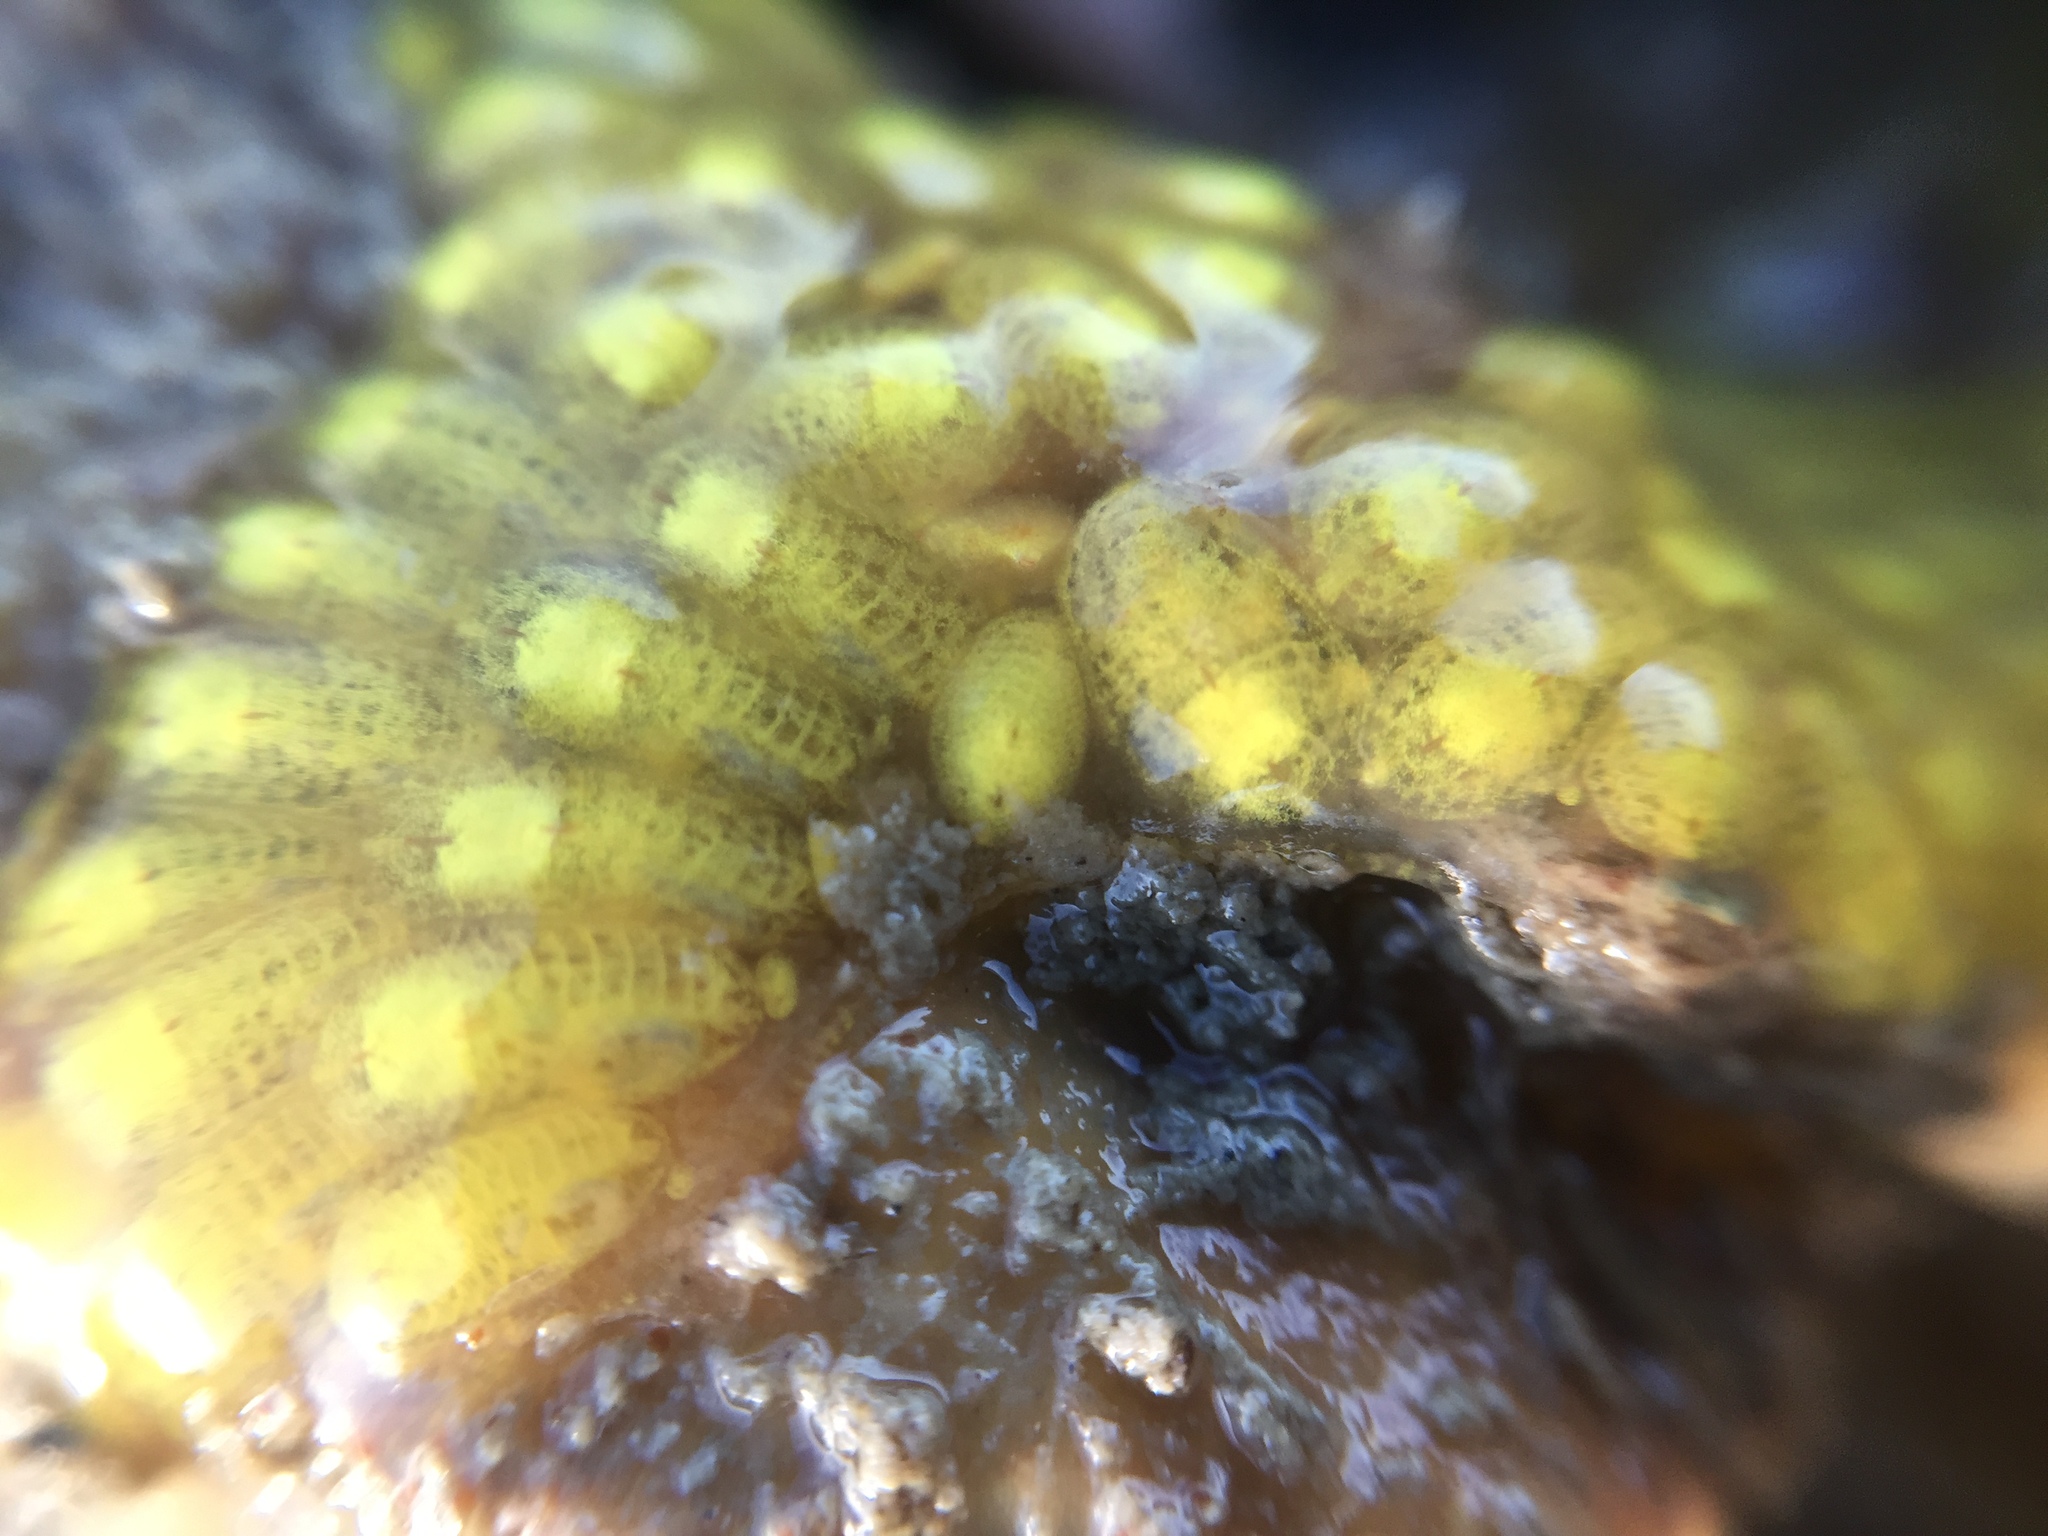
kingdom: Animalia
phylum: Chordata
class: Ascidiacea
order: Stolidobranchia
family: Styelidae
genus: Symplegma
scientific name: Symplegma brakenhielmi
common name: Ascidian
